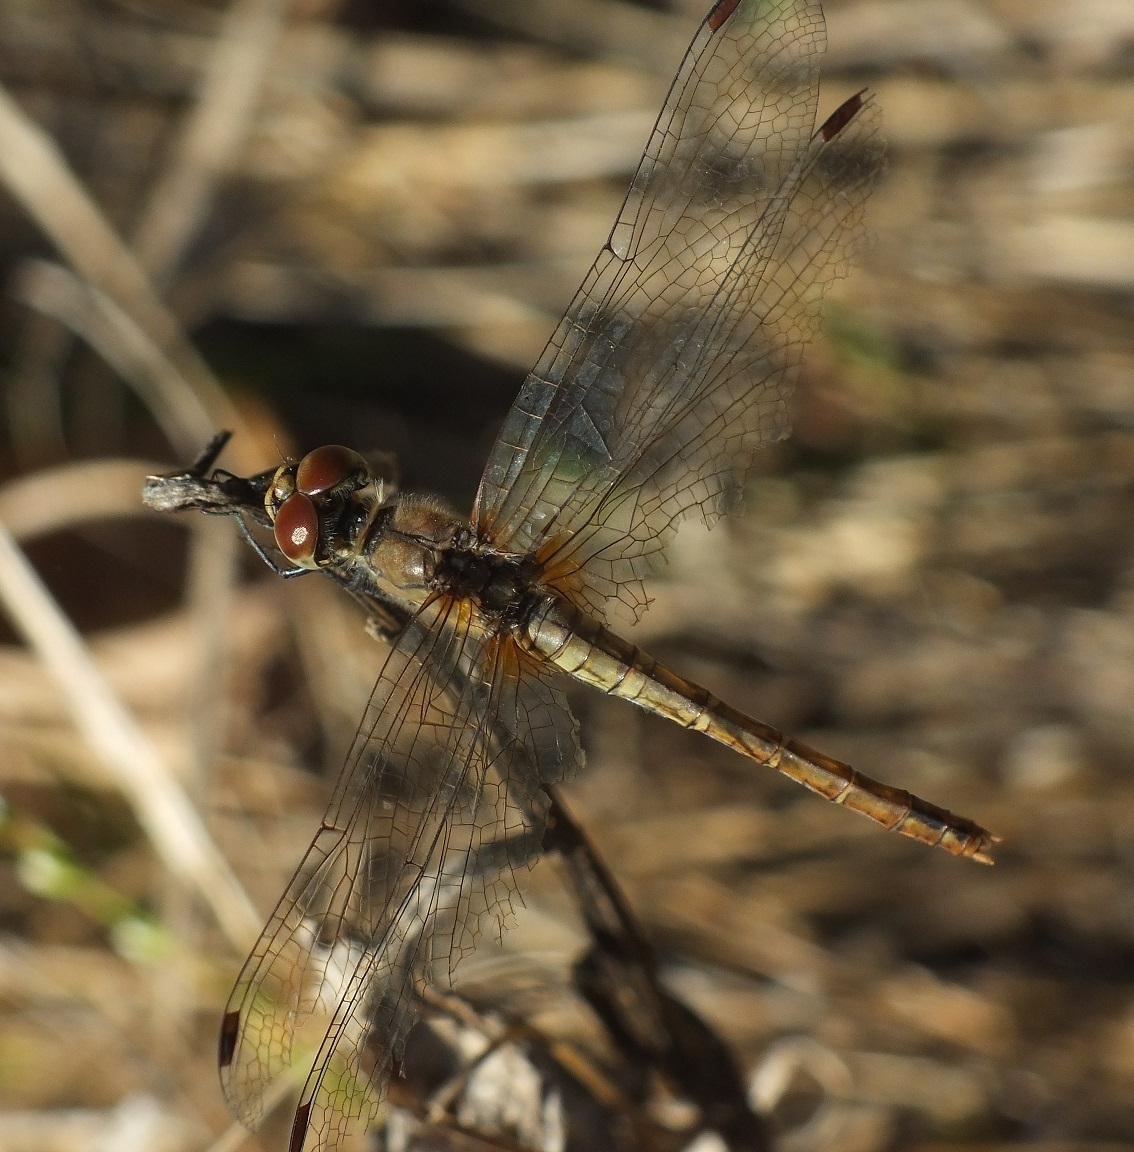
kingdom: Animalia
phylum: Arthropoda
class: Insecta
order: Odonata
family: Libellulidae
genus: Sympetrum
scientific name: Sympetrum sanguineum
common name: Ruddy darter
